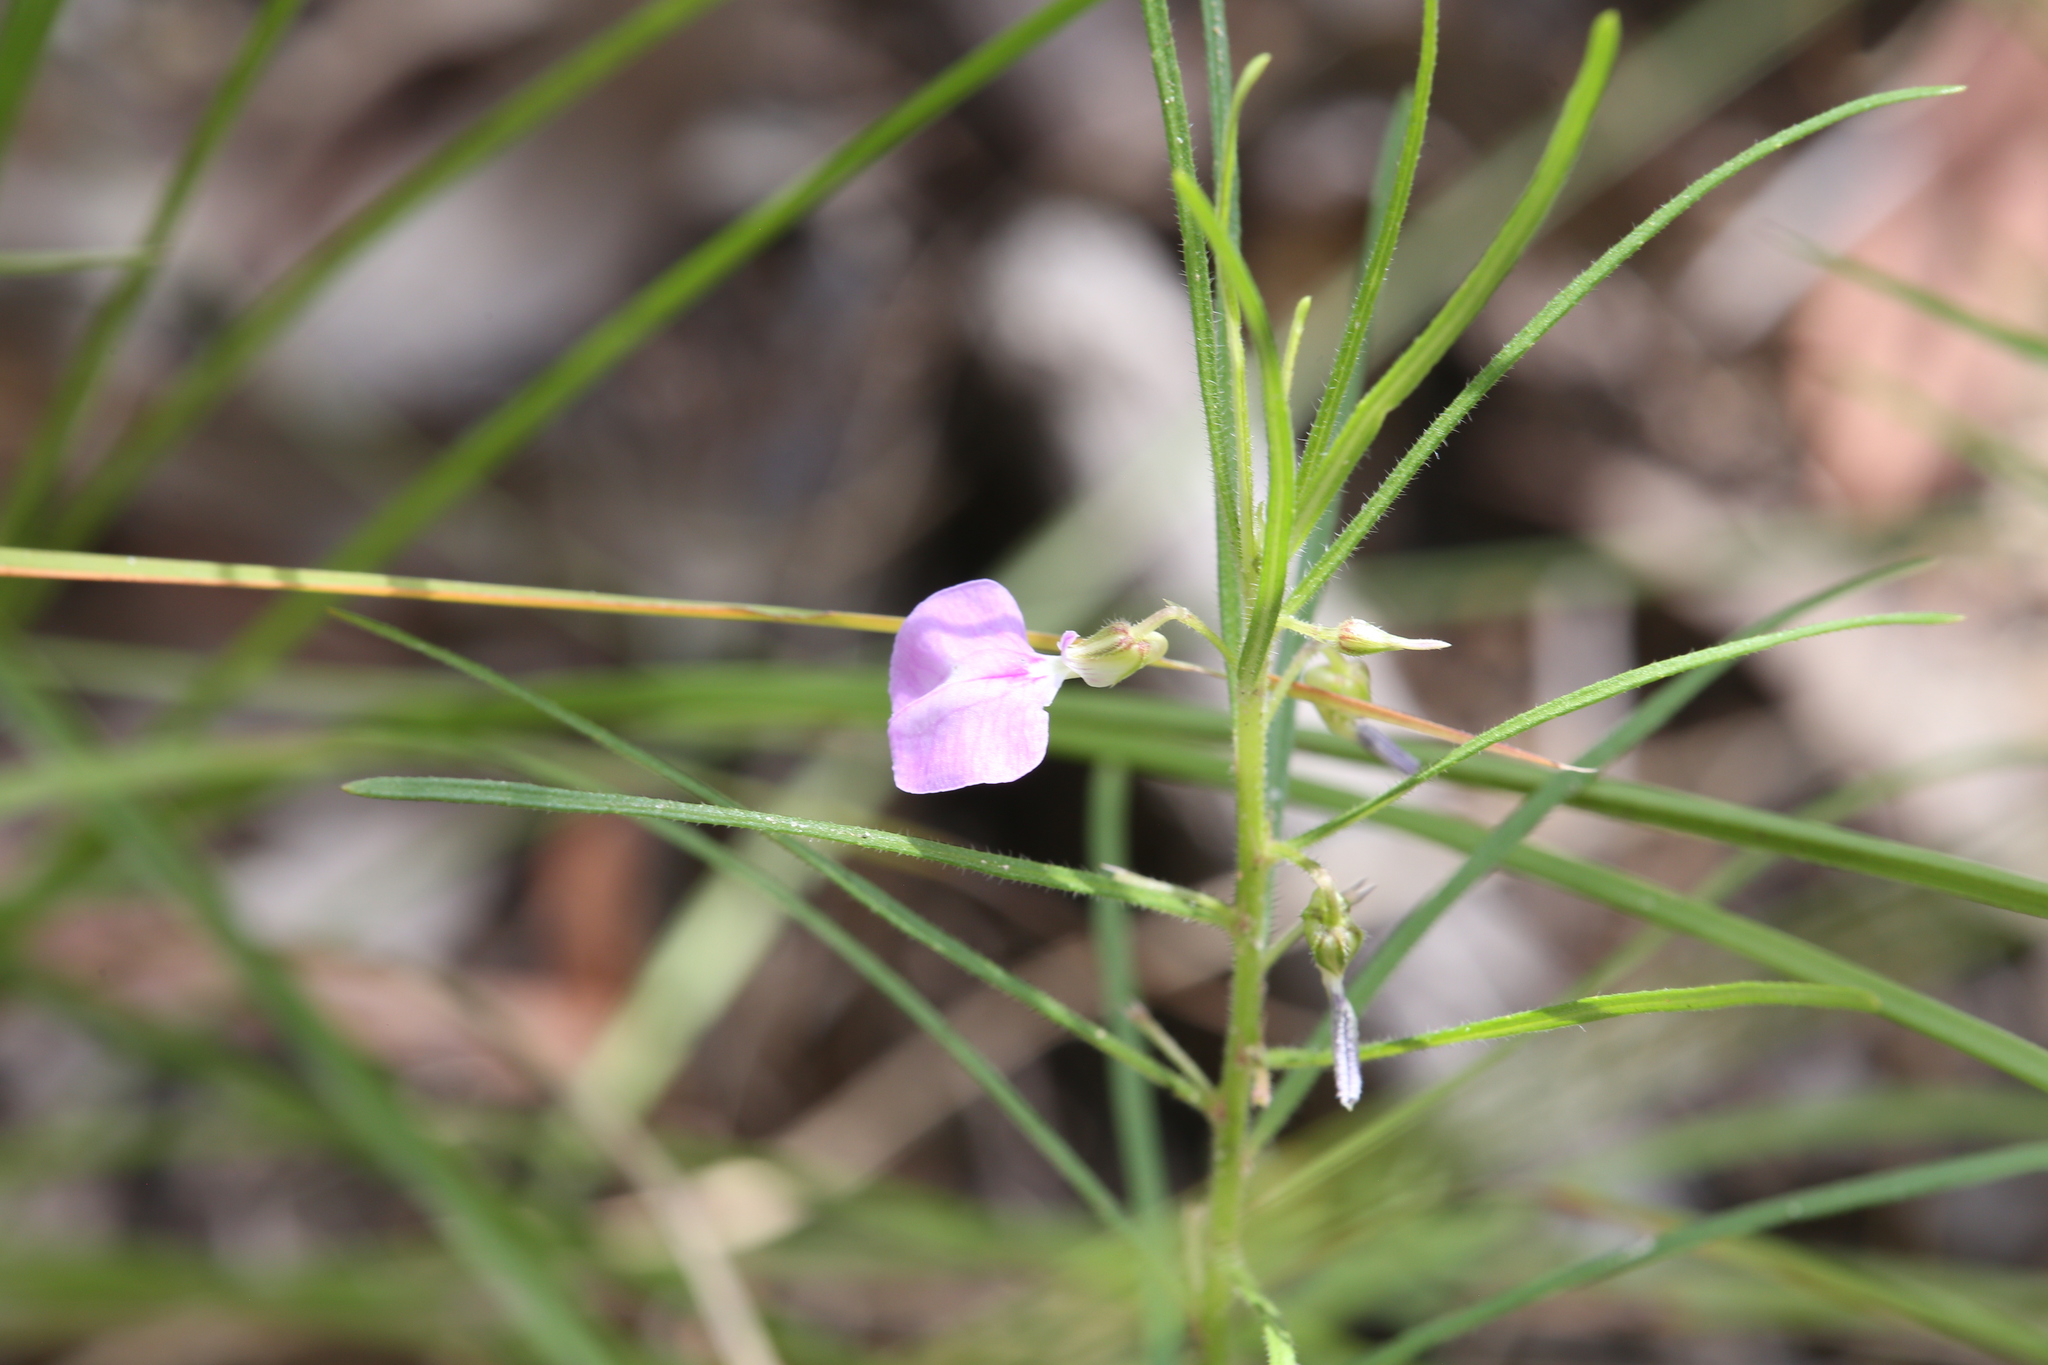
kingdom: Plantae
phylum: Tracheophyta
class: Magnoliopsida
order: Malpighiales
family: Violaceae
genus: Pigea
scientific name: Pigea enneasperma
